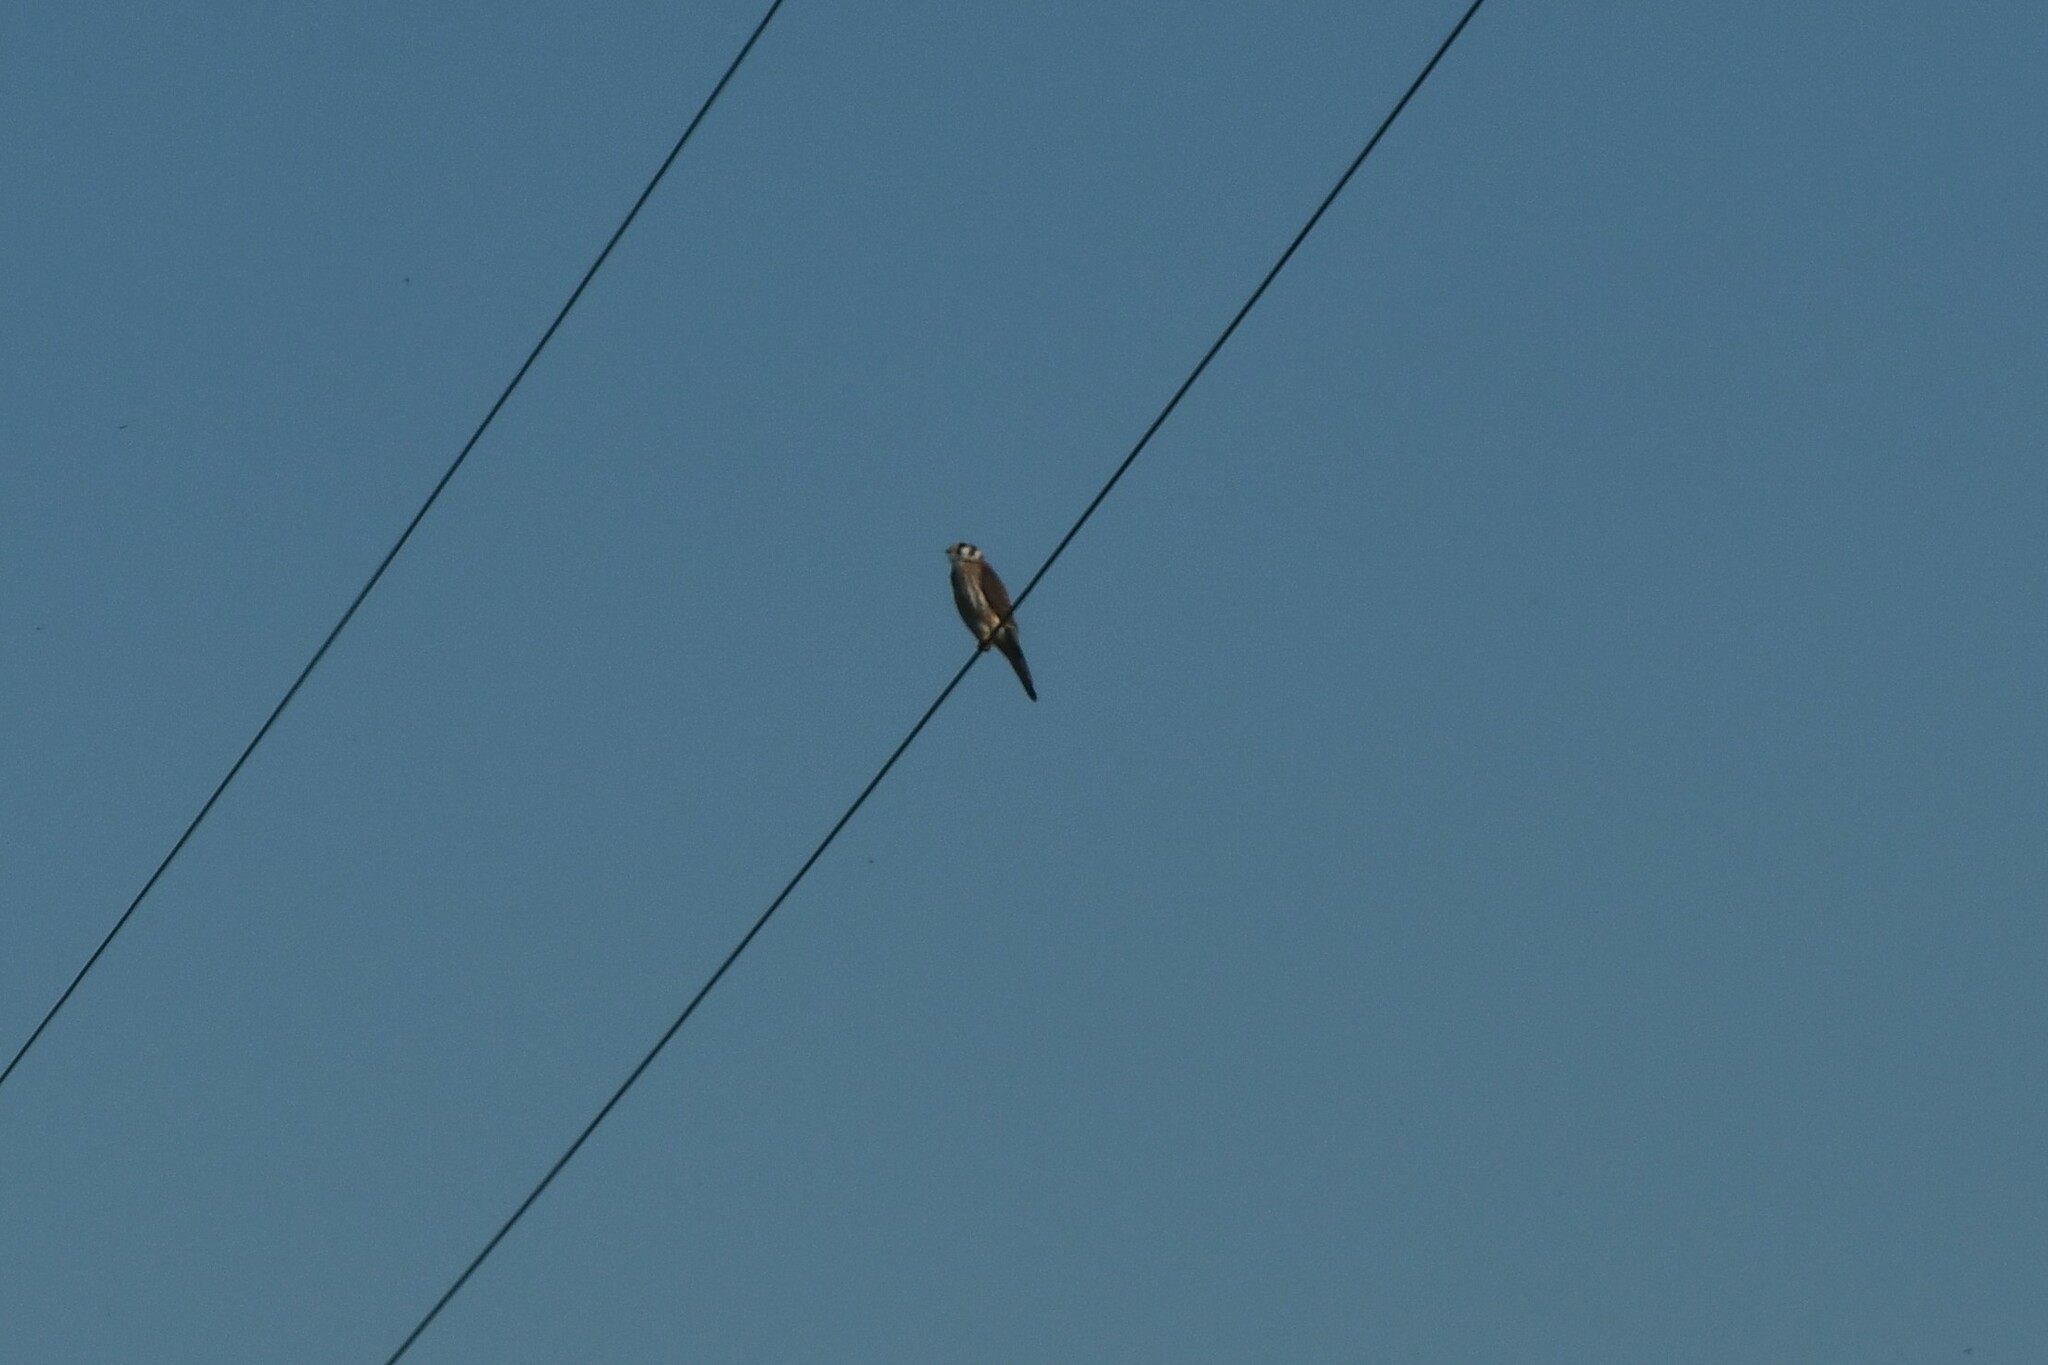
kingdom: Animalia
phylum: Chordata
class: Aves
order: Falconiformes
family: Falconidae
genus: Falco
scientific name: Falco sparverius
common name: American kestrel
